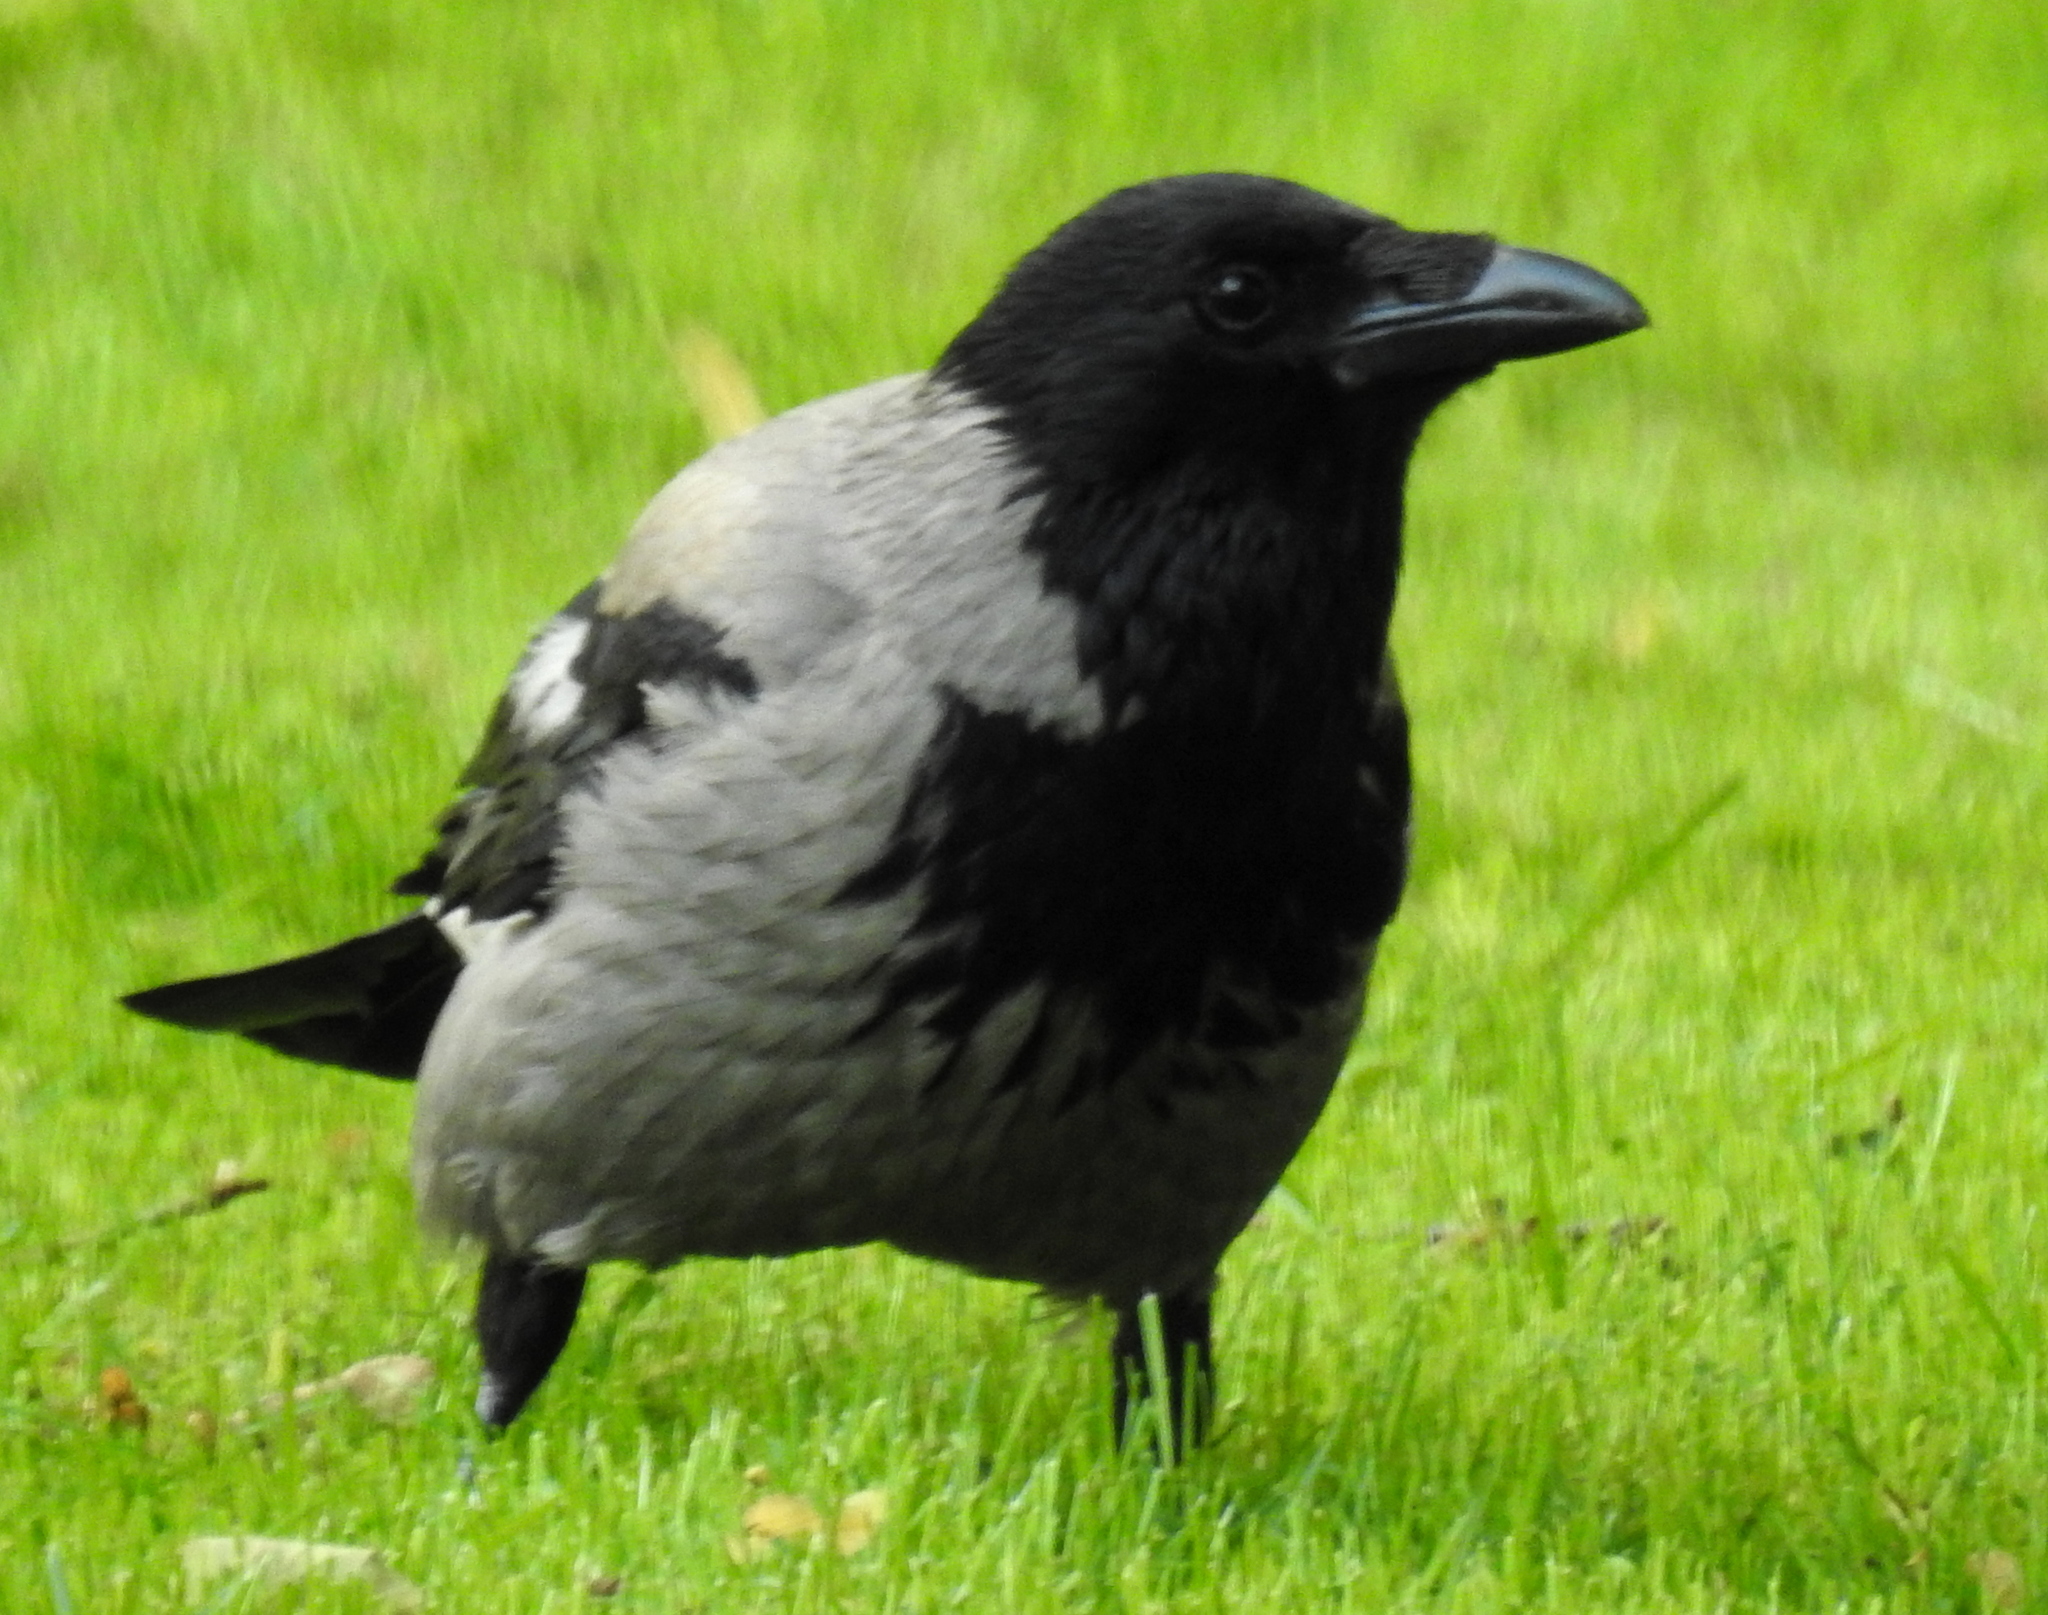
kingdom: Animalia
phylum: Chordata
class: Aves
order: Passeriformes
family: Corvidae
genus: Corvus
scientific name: Corvus cornix
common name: Hooded crow
